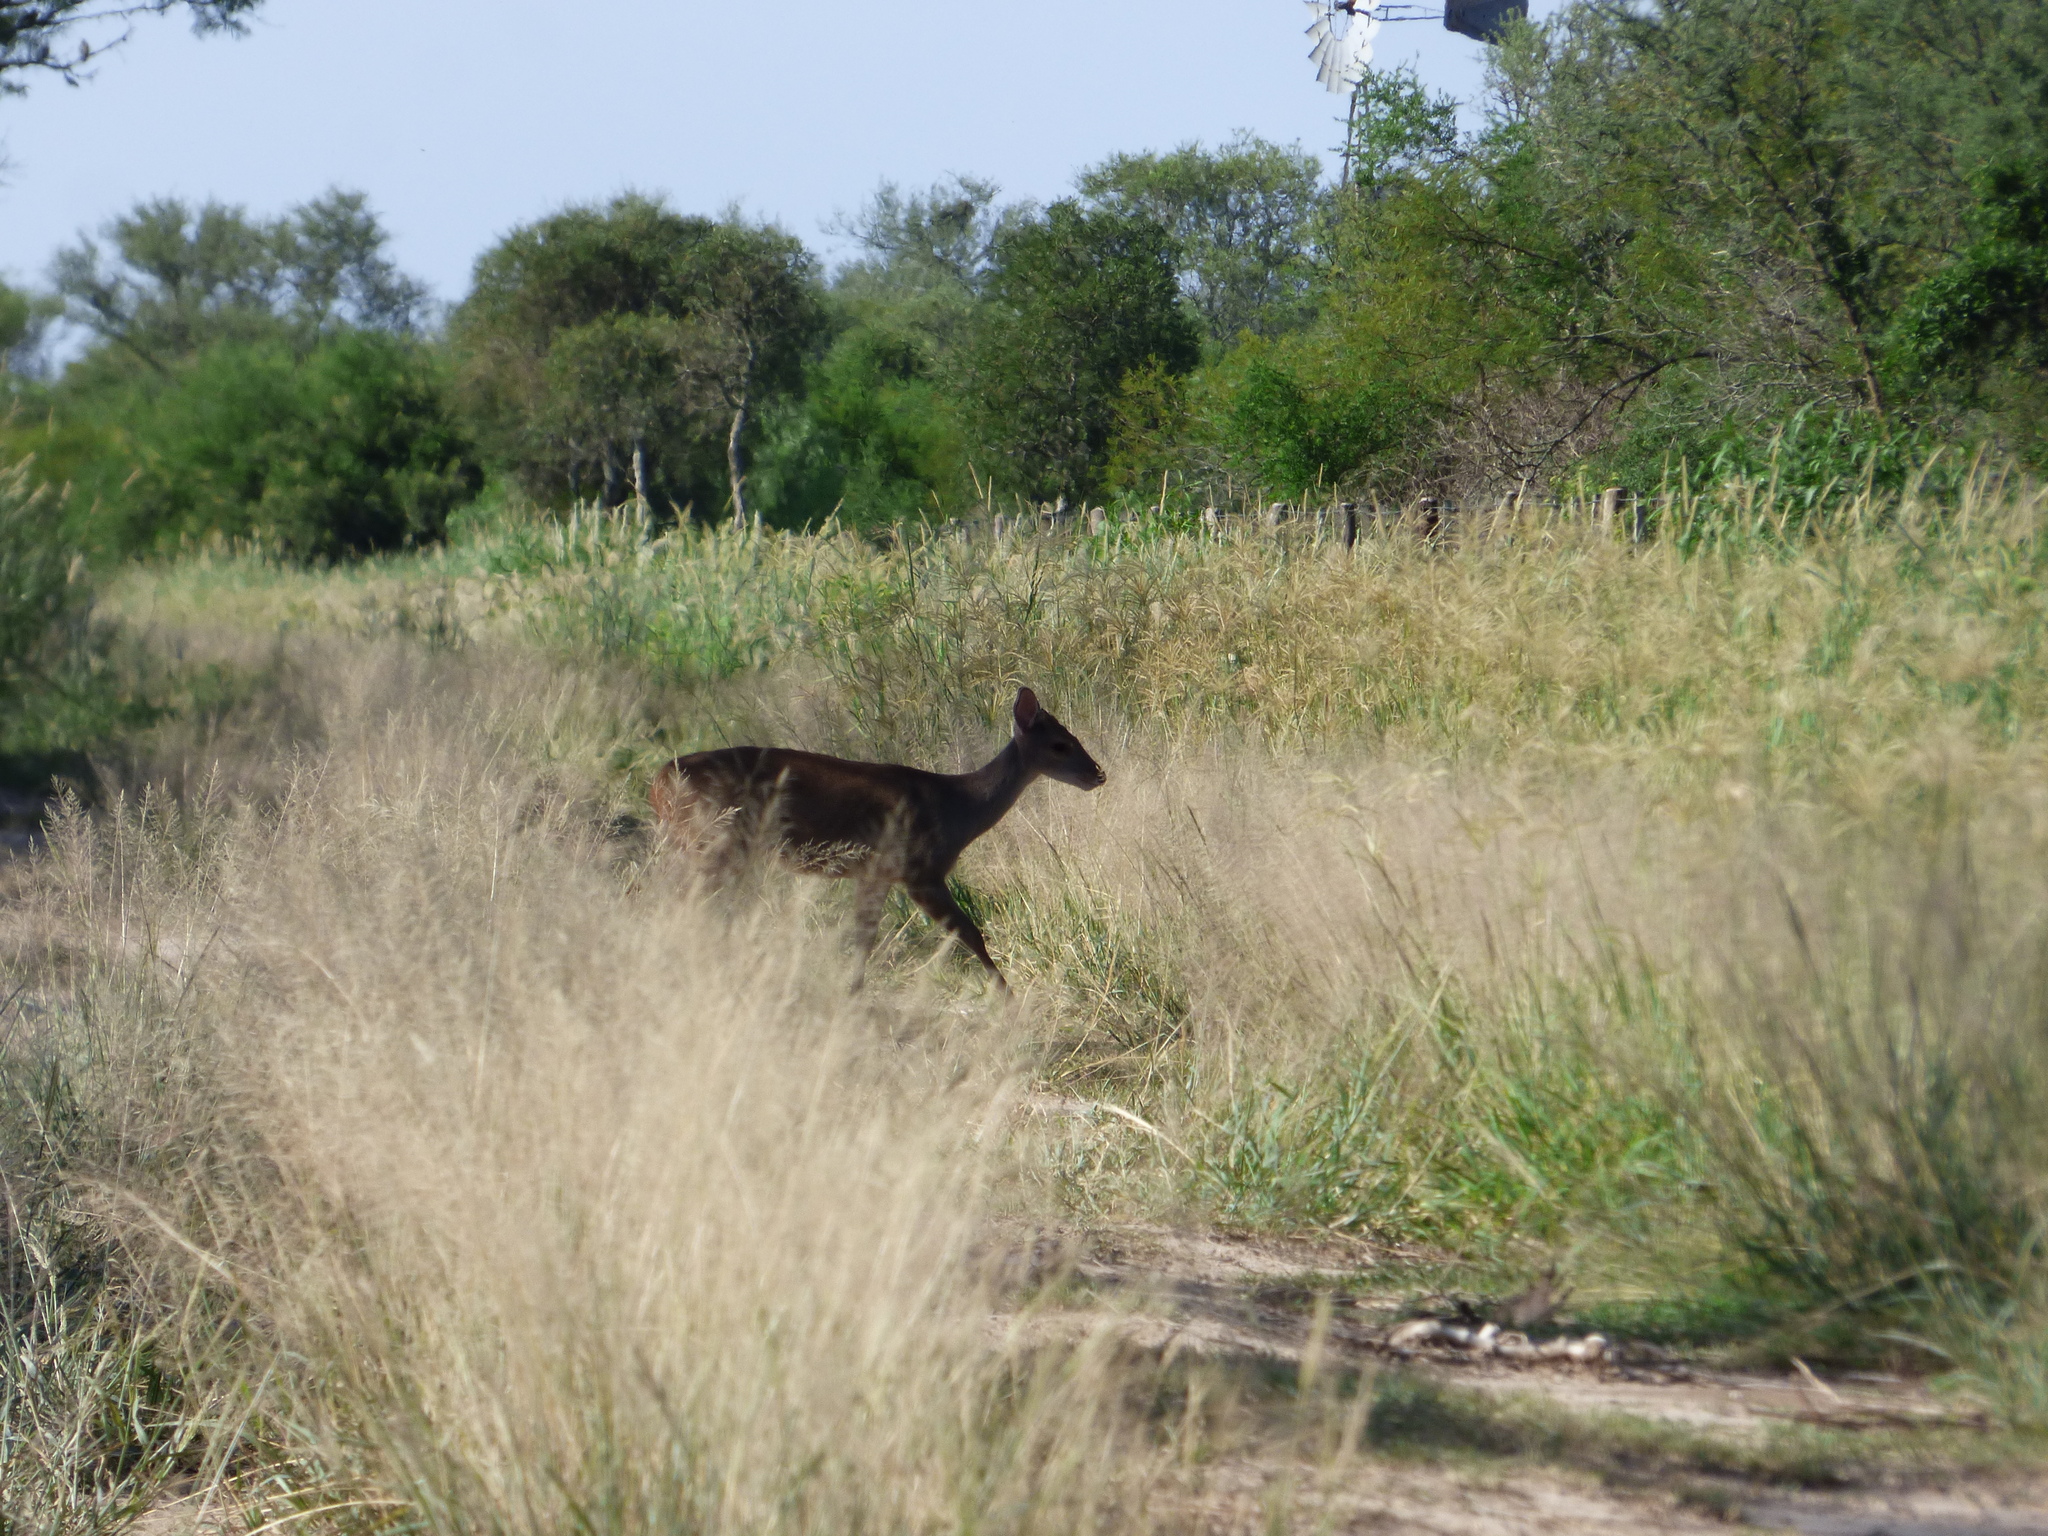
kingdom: Animalia
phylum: Chordata
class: Mammalia
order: Artiodactyla
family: Cervidae
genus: Mazama
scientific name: Mazama gouazoubira
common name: Gray brocket
